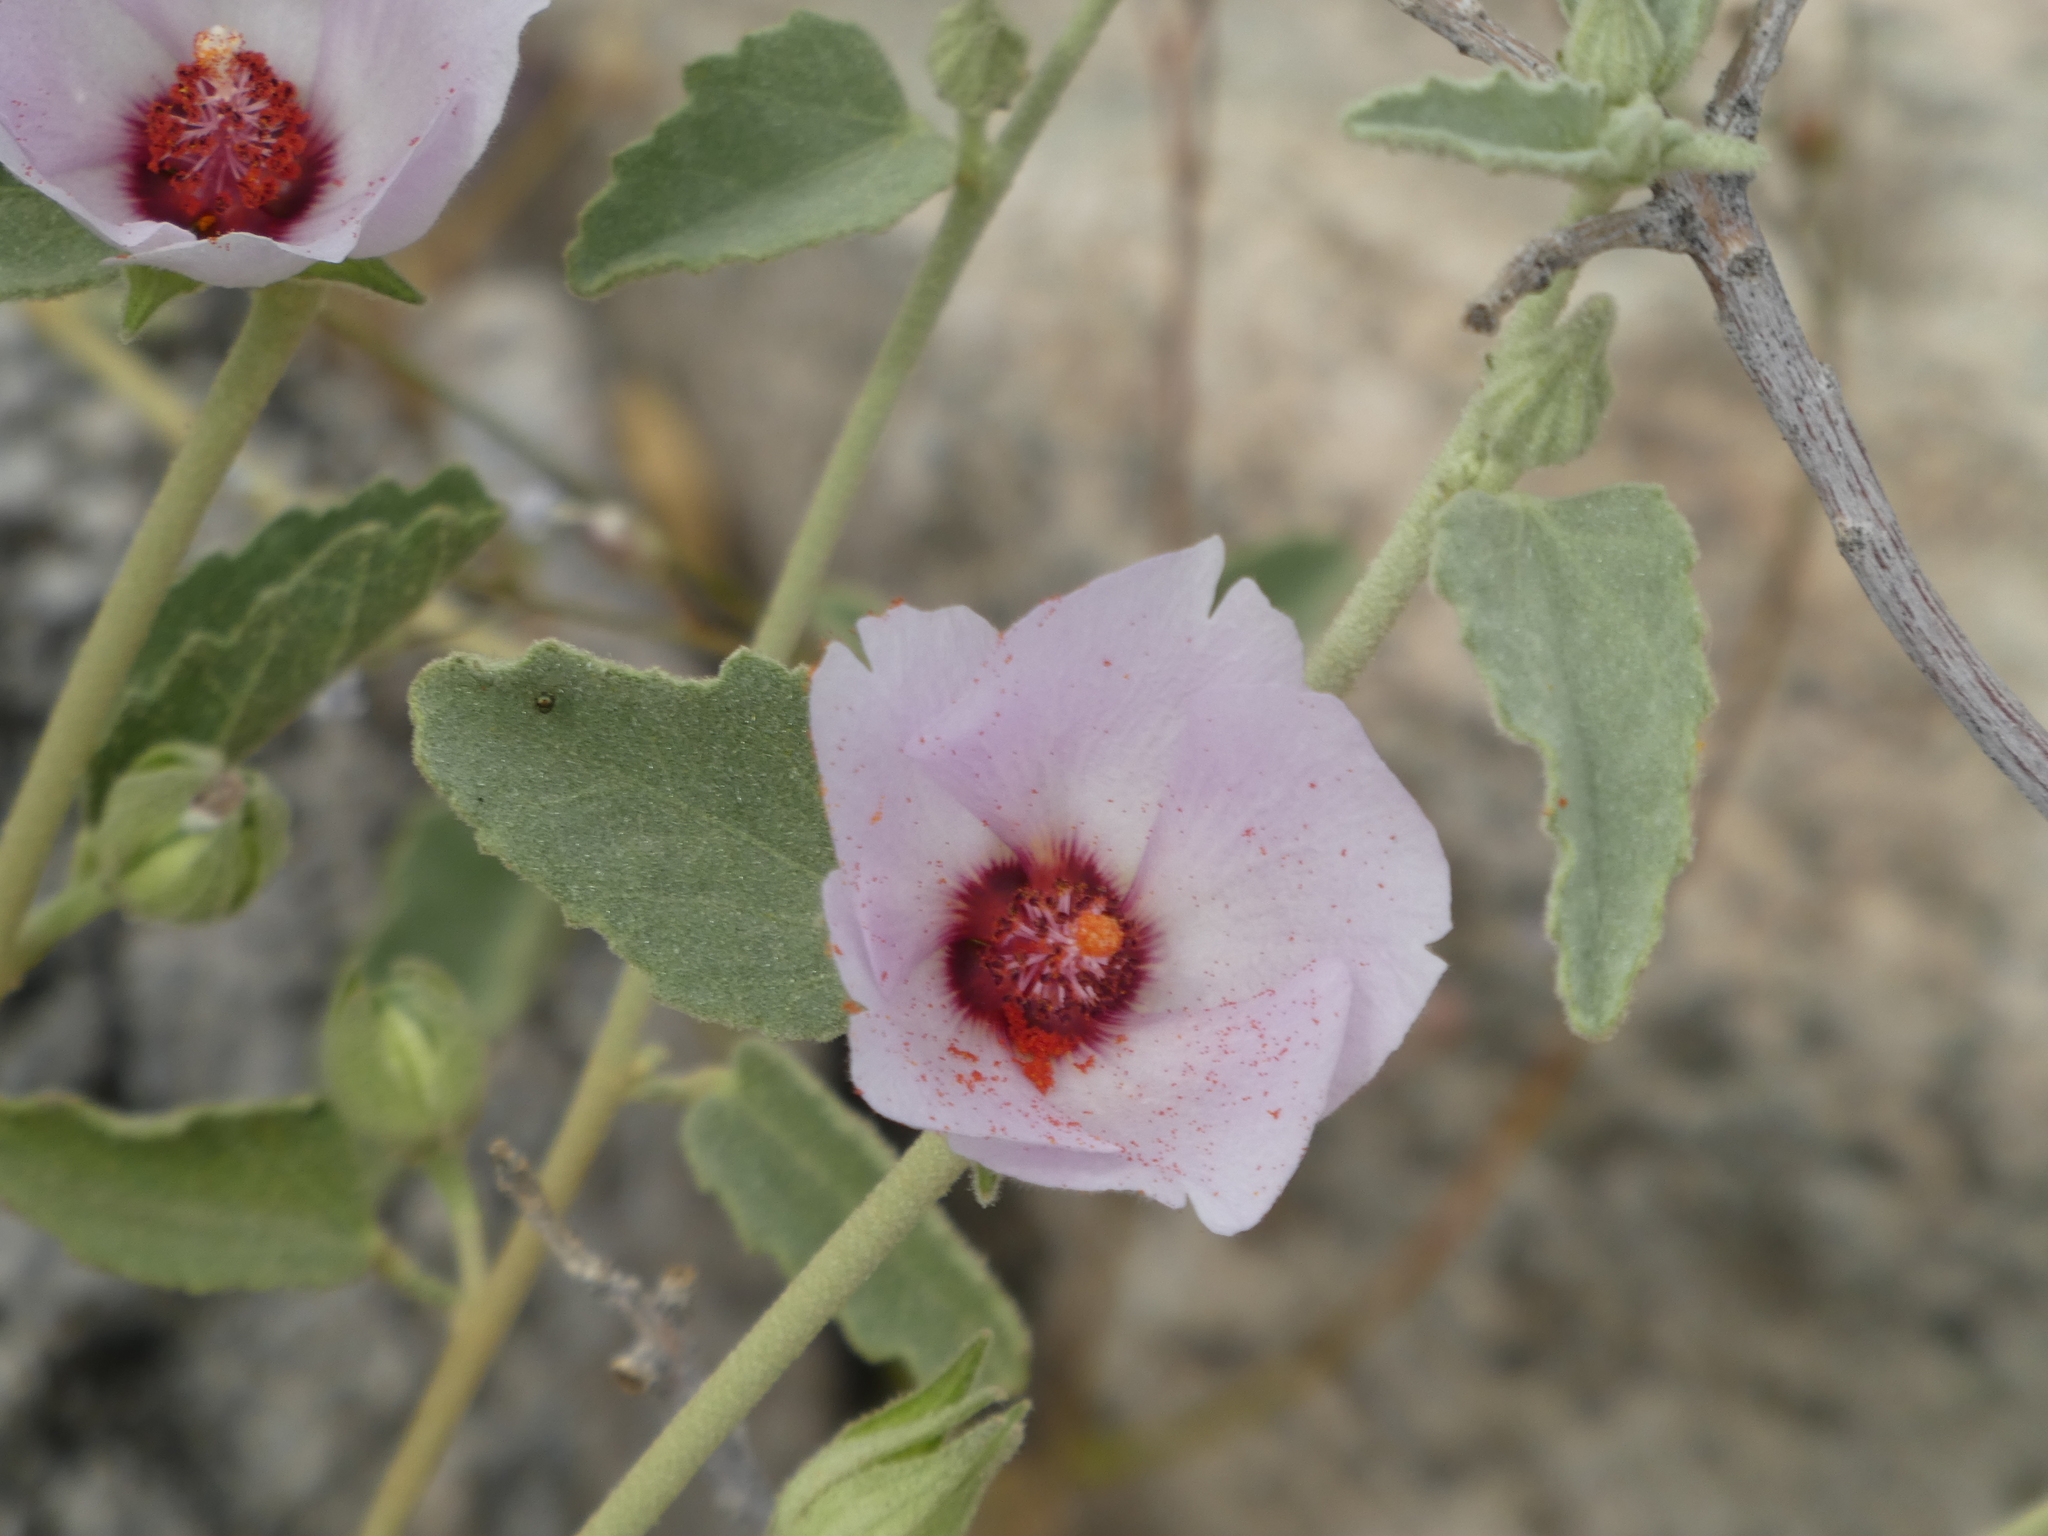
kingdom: Plantae
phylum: Tracheophyta
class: Magnoliopsida
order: Malvales
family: Malvaceae
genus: Hibiscus
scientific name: Hibiscus denudatus
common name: Paleface
